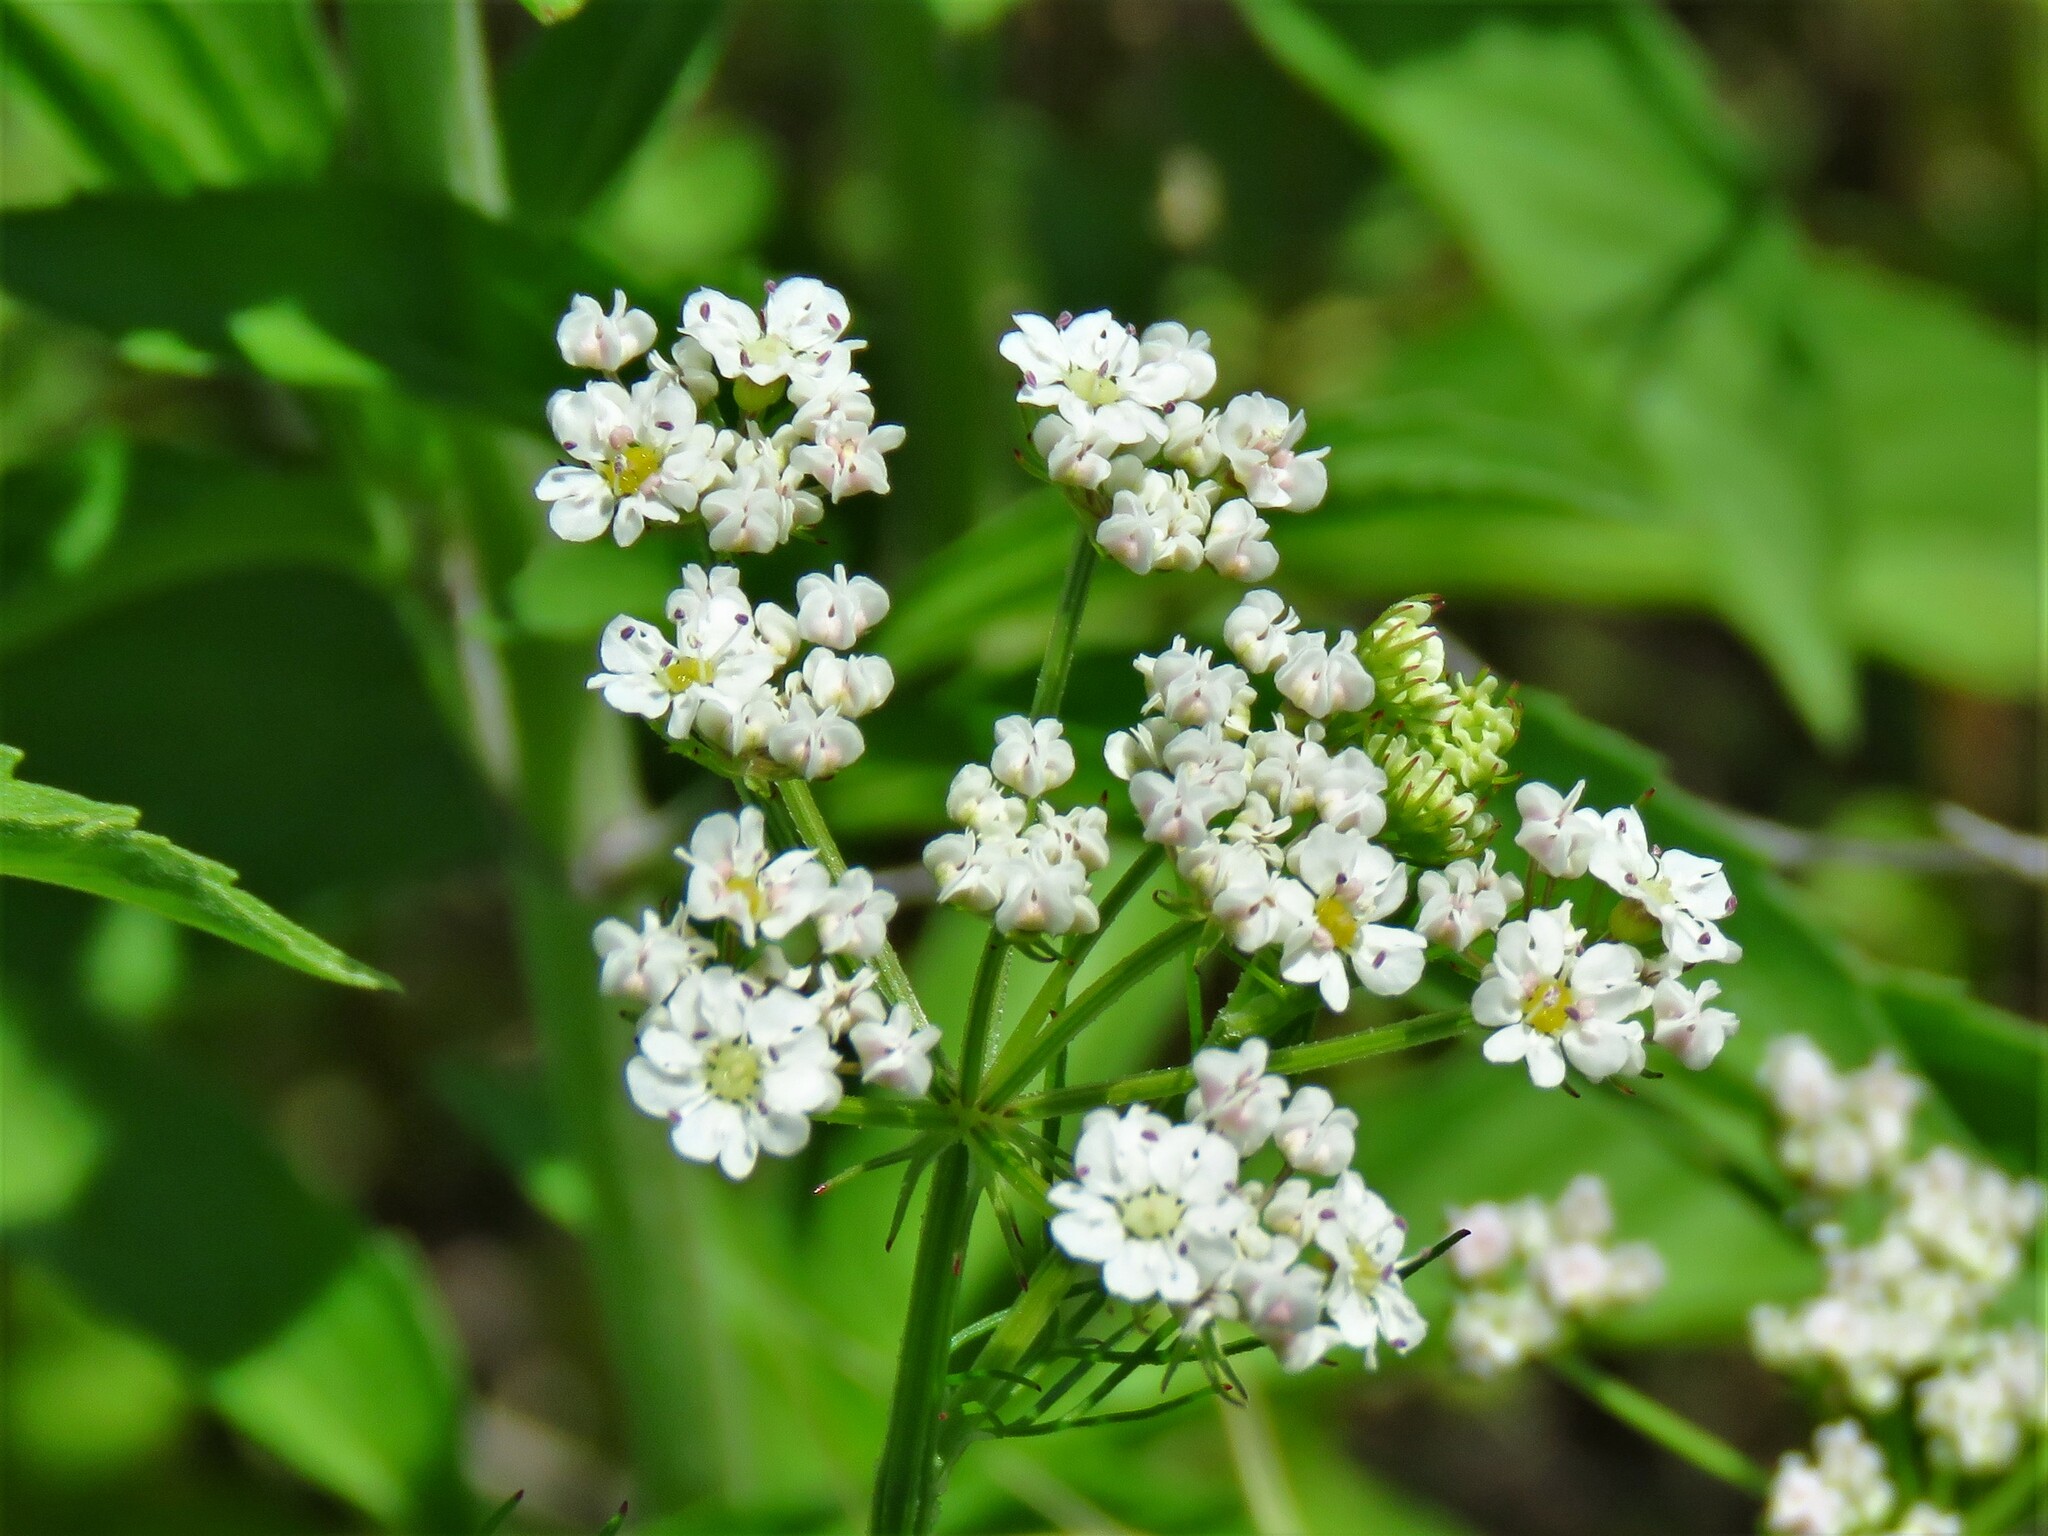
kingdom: Plantae
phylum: Tracheophyta
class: Magnoliopsida
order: Apiales
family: Apiaceae
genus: Atrema
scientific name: Atrema americanum
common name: Prairie-bishop
